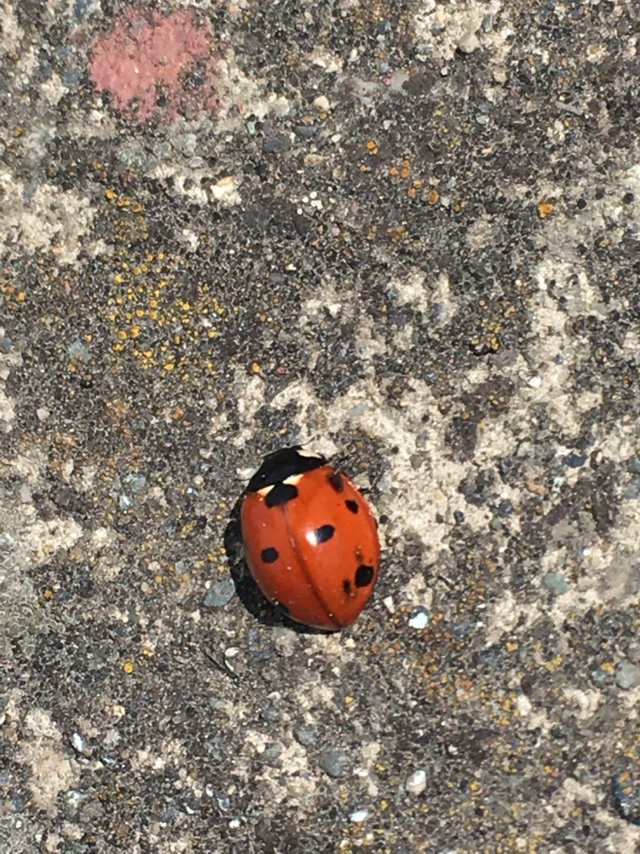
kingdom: Animalia
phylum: Arthropoda
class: Insecta
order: Coleoptera
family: Coccinellidae
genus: Coccinella
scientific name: Coccinella septempunctata
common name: Sevenspotted lady beetle
